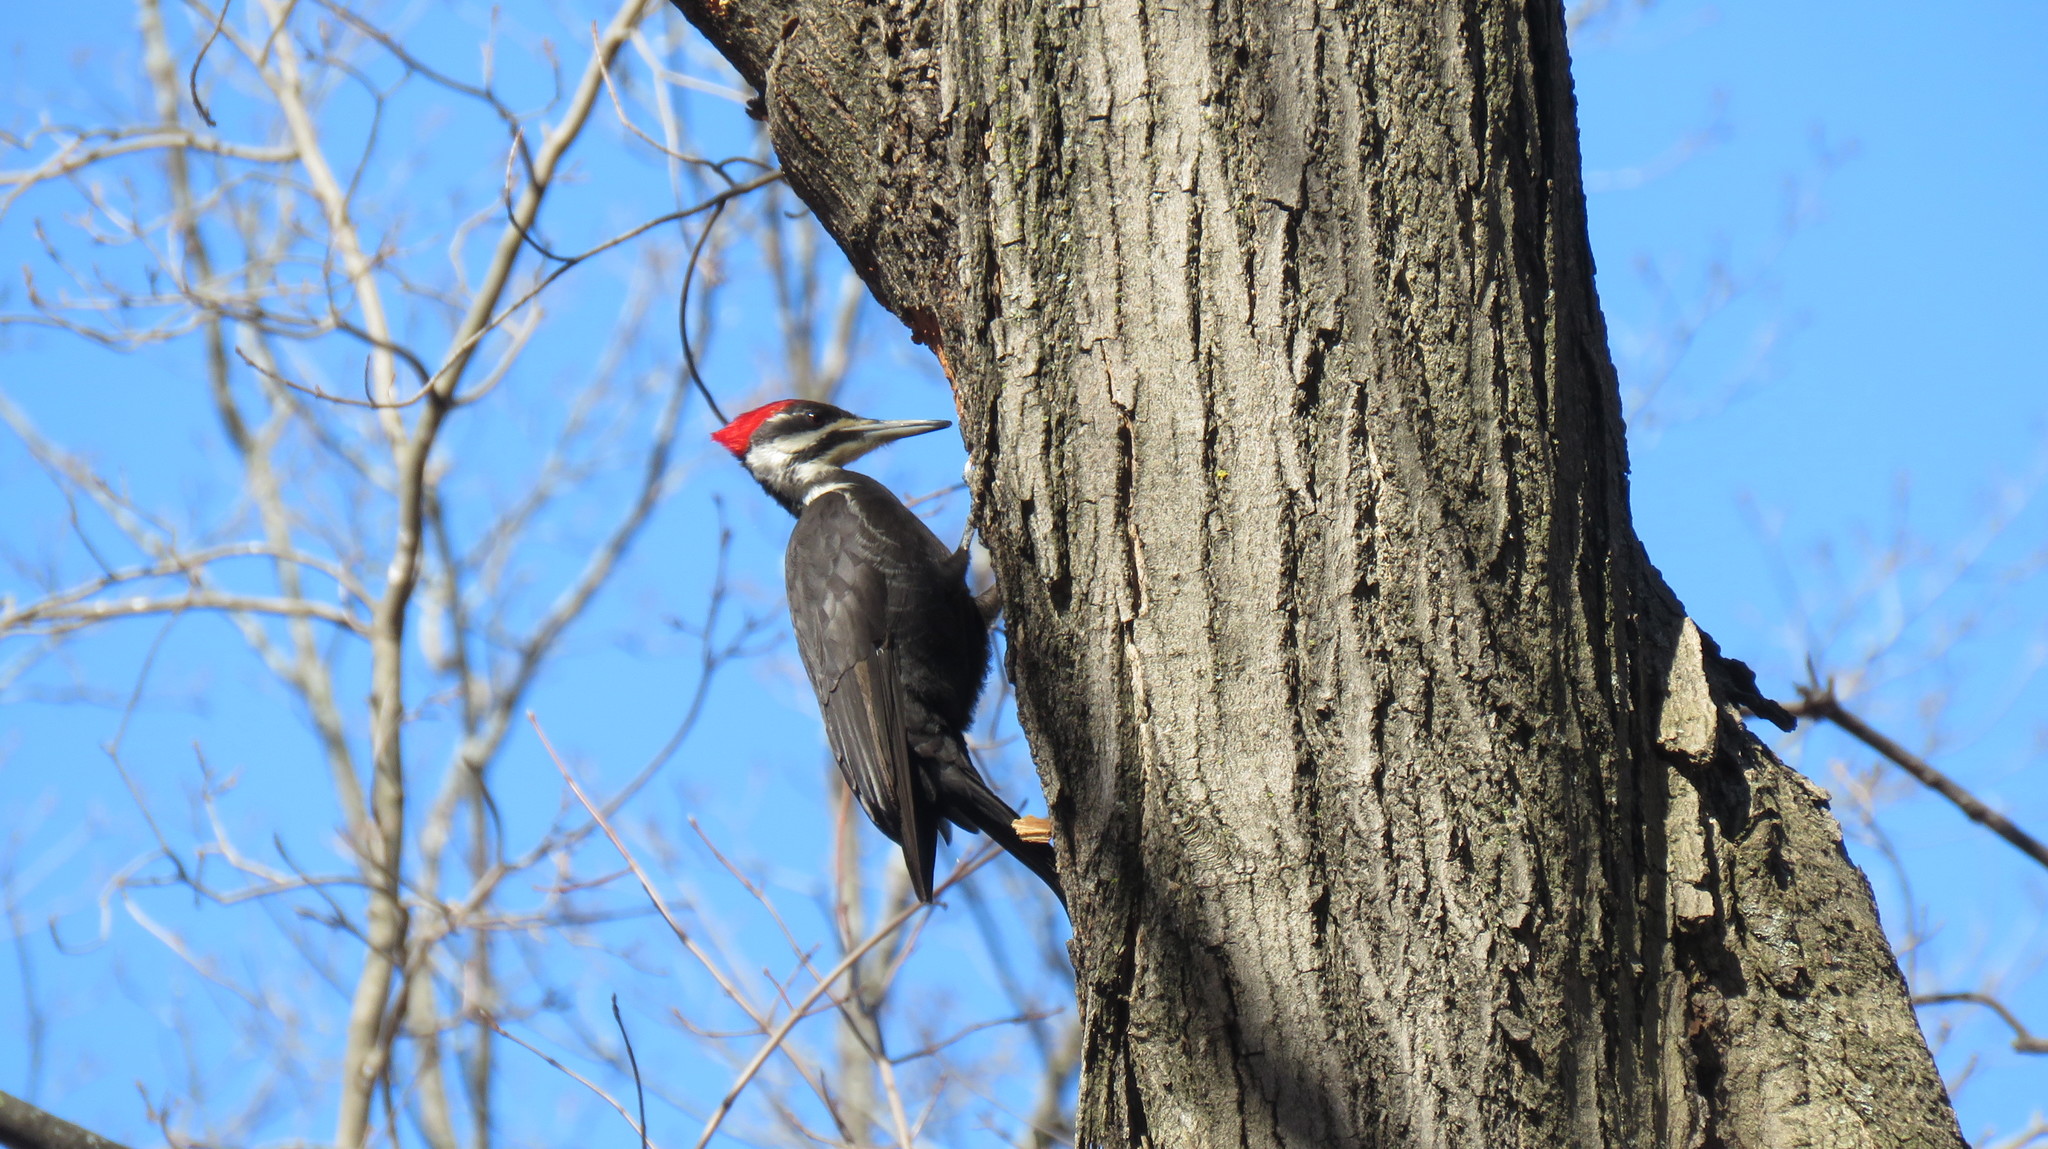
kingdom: Animalia
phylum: Chordata
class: Aves
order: Piciformes
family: Picidae
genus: Dryocopus
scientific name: Dryocopus pileatus
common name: Pileated woodpecker
